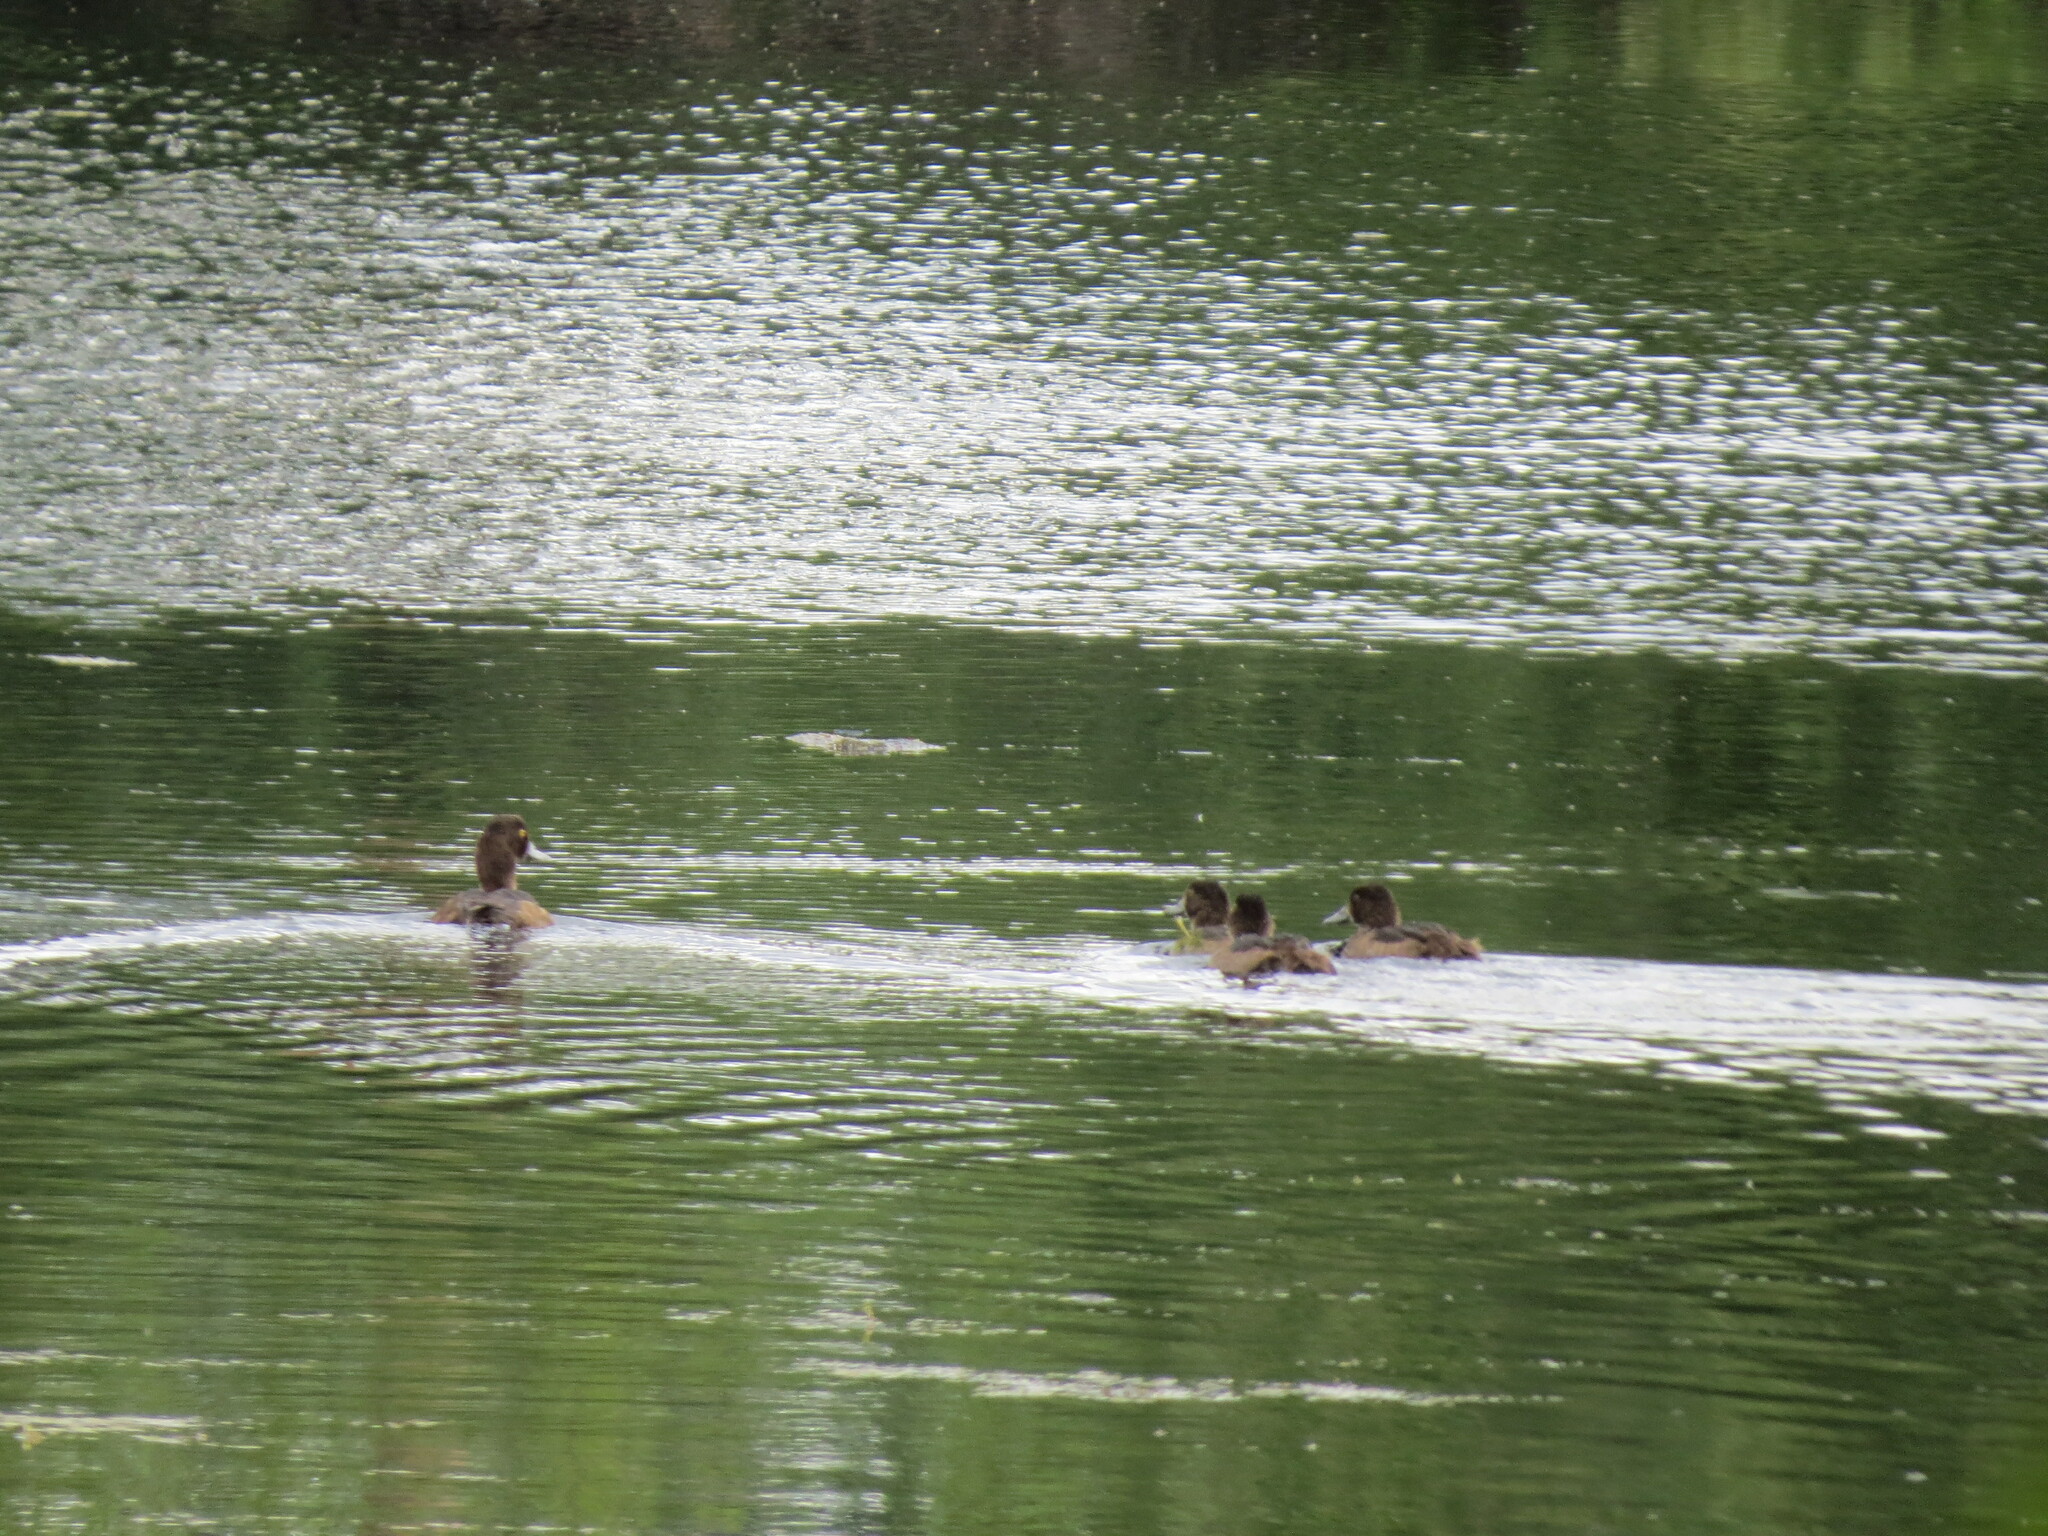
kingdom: Animalia
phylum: Chordata
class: Aves
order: Anseriformes
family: Anatidae
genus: Aythya
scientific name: Aythya fuligula
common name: Tufted duck
